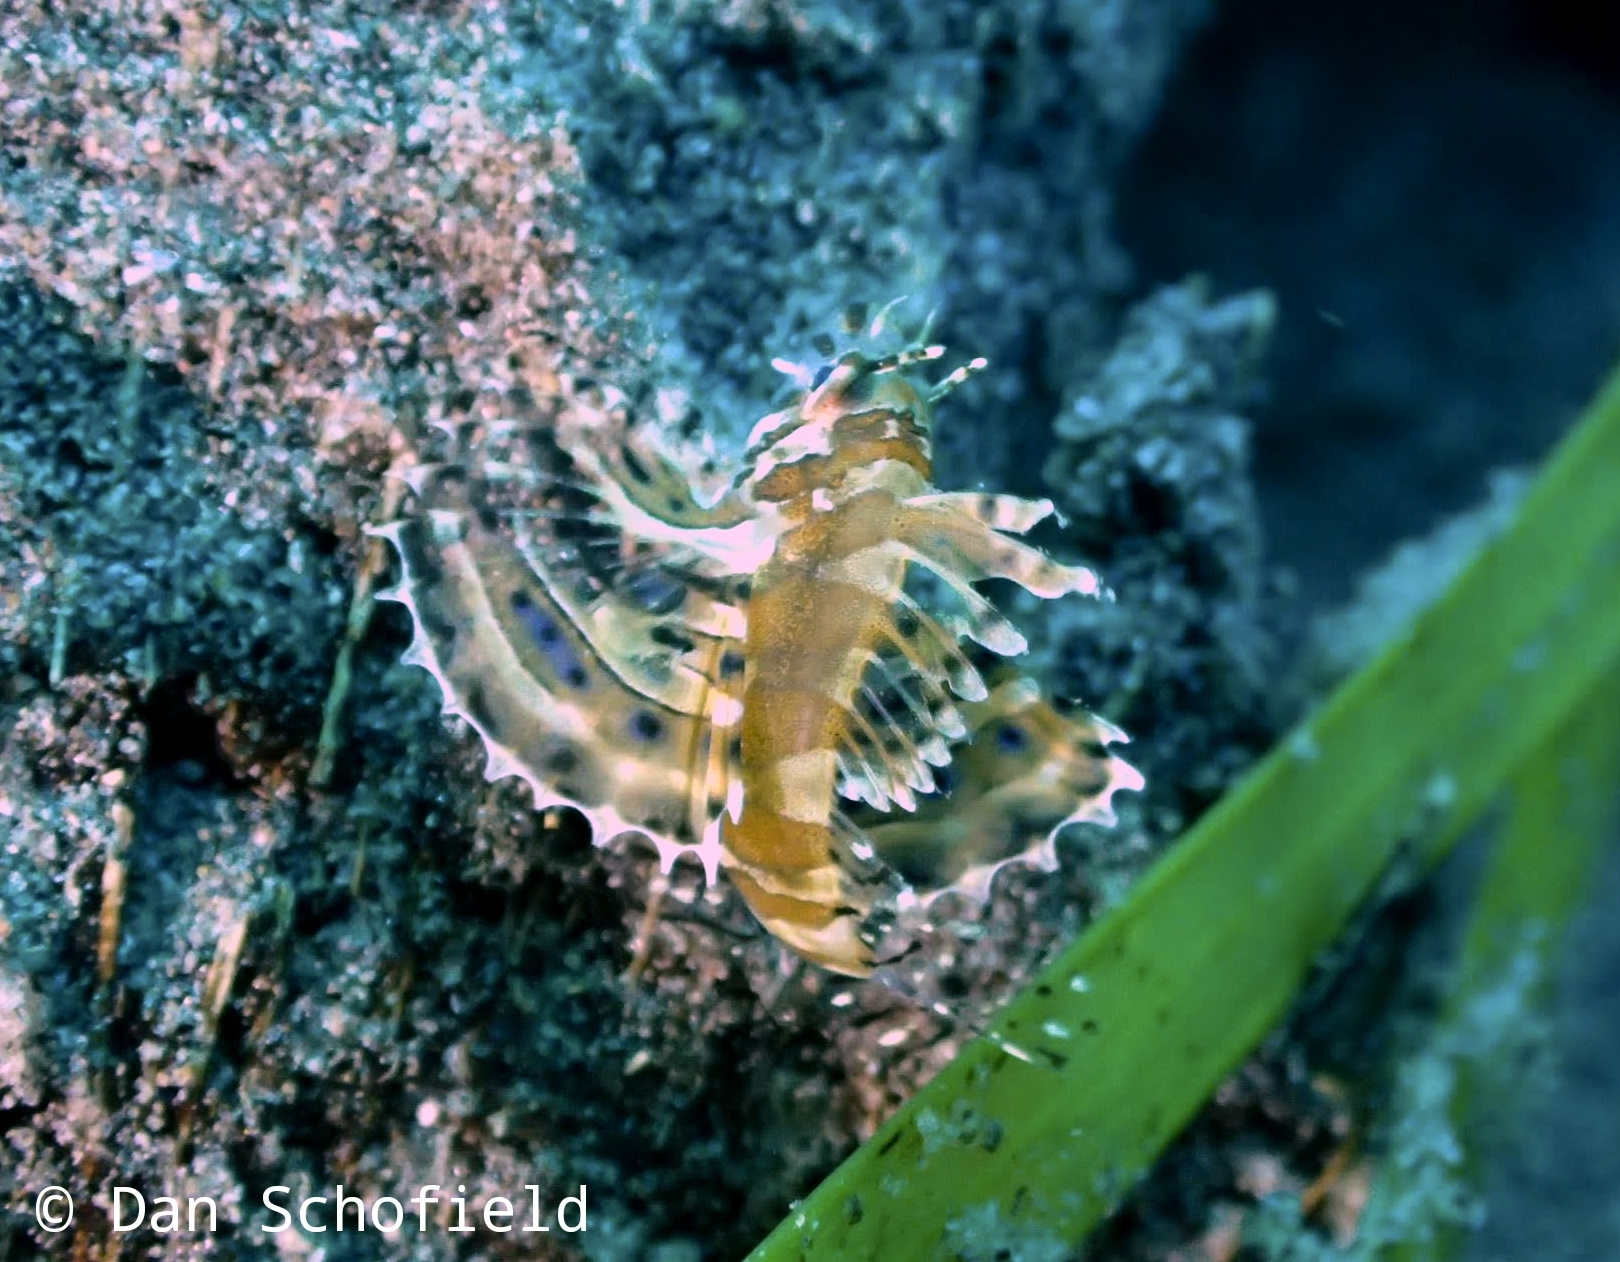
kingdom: Animalia
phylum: Chordata
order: Scorpaeniformes
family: Scorpaenidae
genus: Dendrochirus
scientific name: Dendrochirus brachypterus
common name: Shortfin turkeyfish
